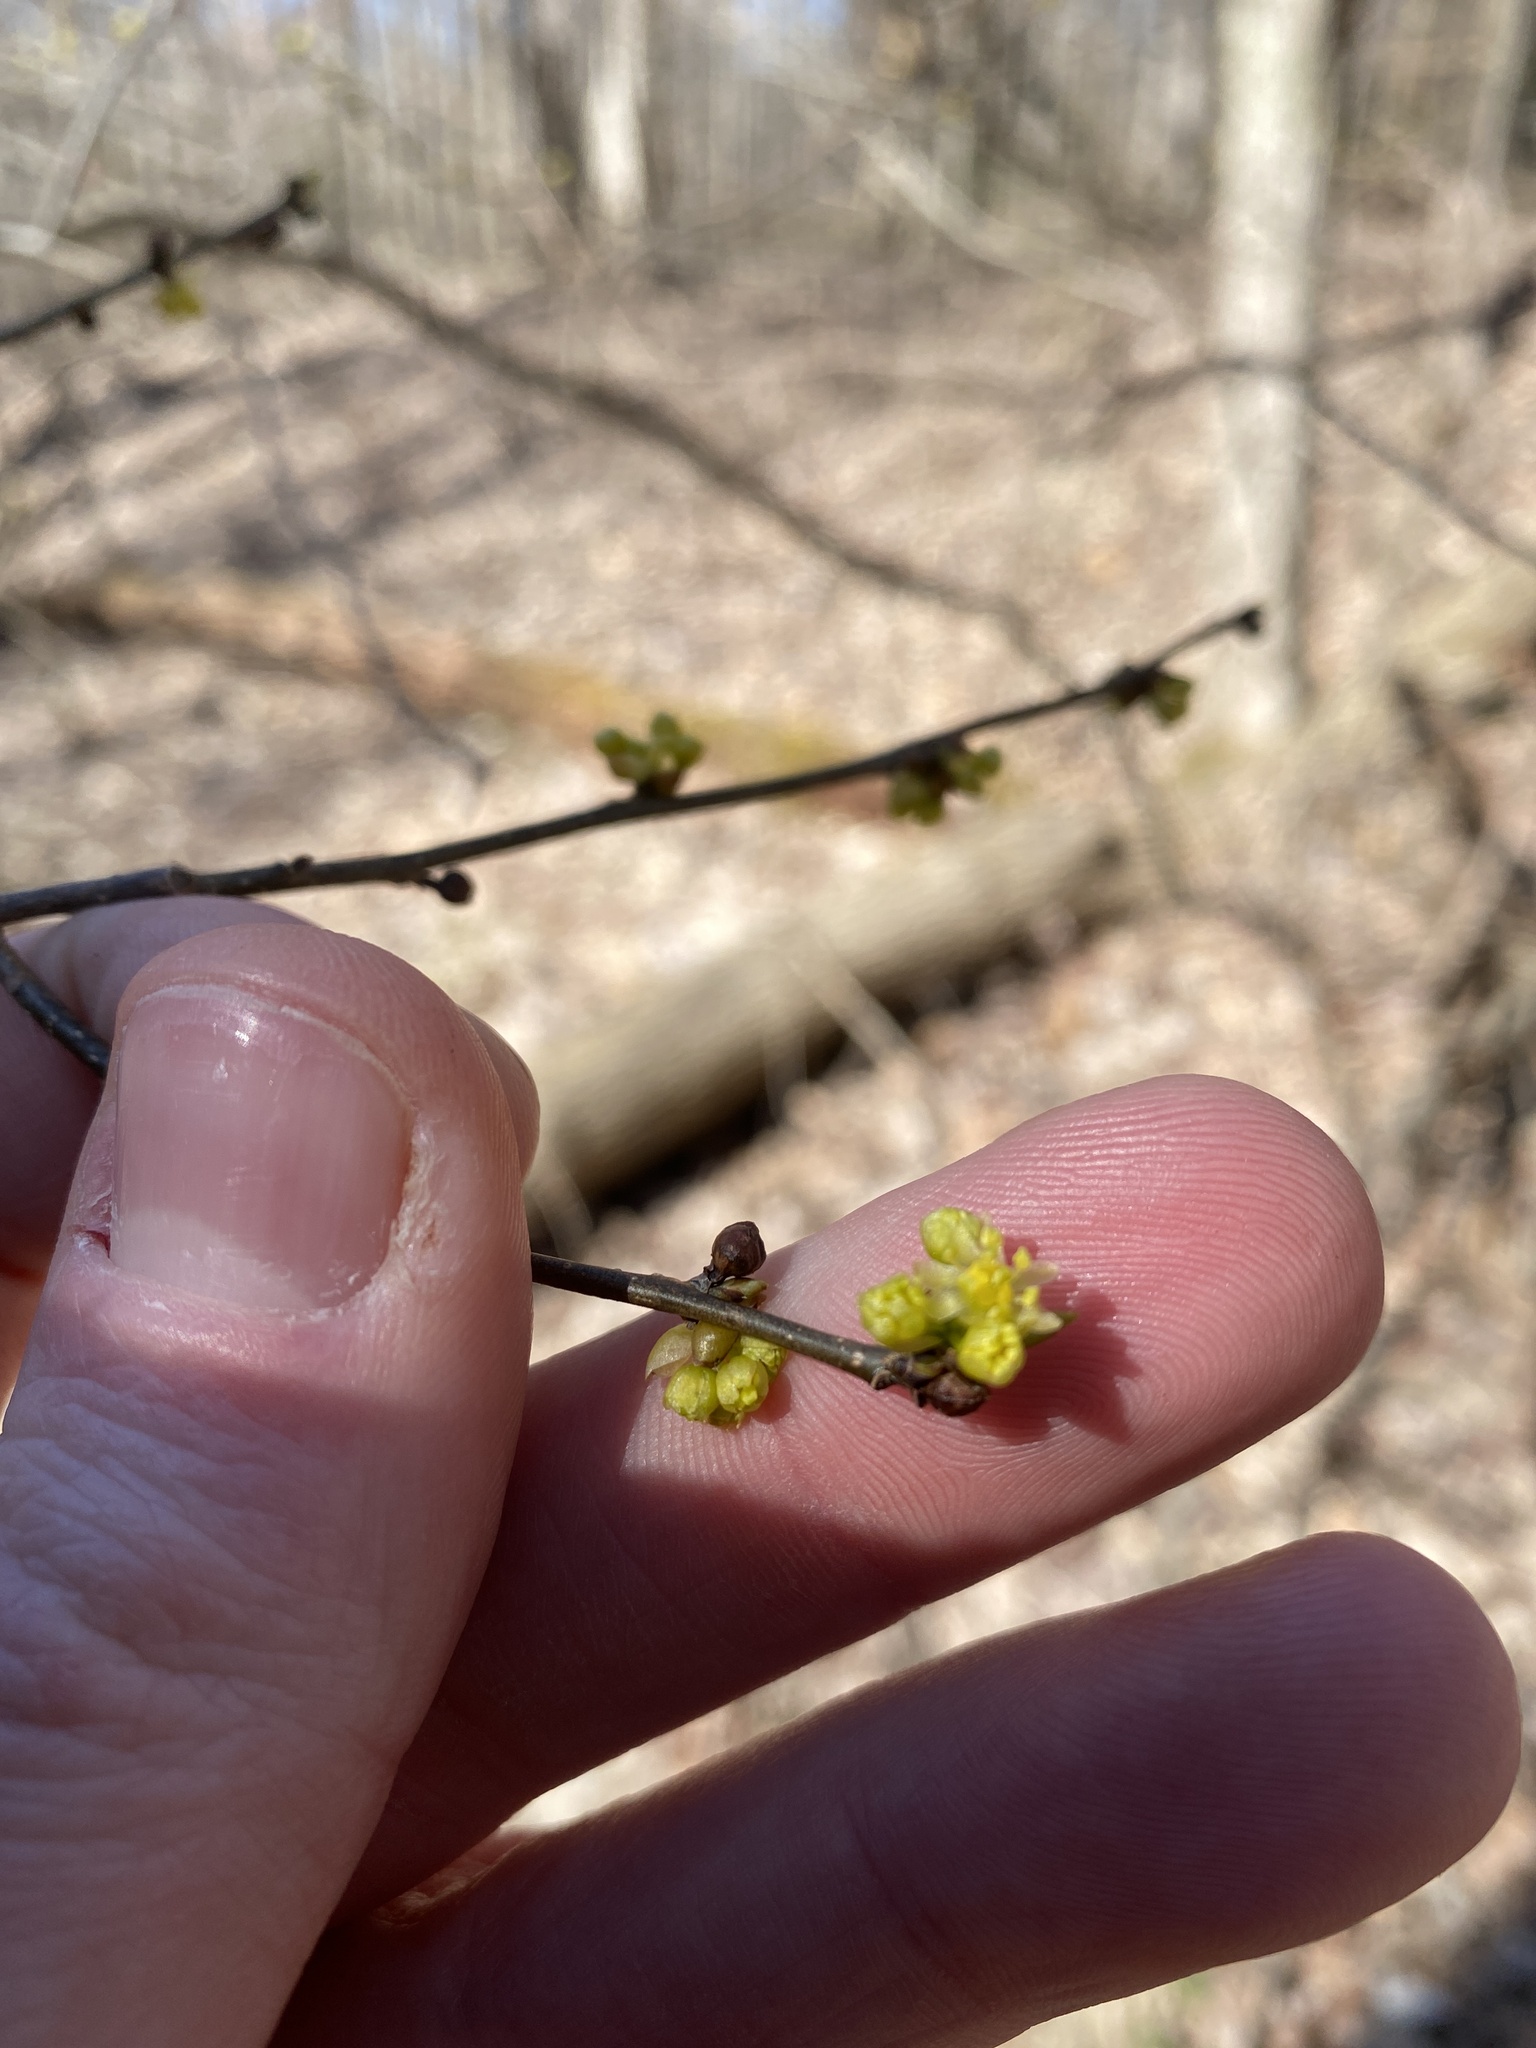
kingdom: Plantae
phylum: Tracheophyta
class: Magnoliopsida
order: Laurales
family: Lauraceae
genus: Lindera
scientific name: Lindera benzoin
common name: Spicebush
